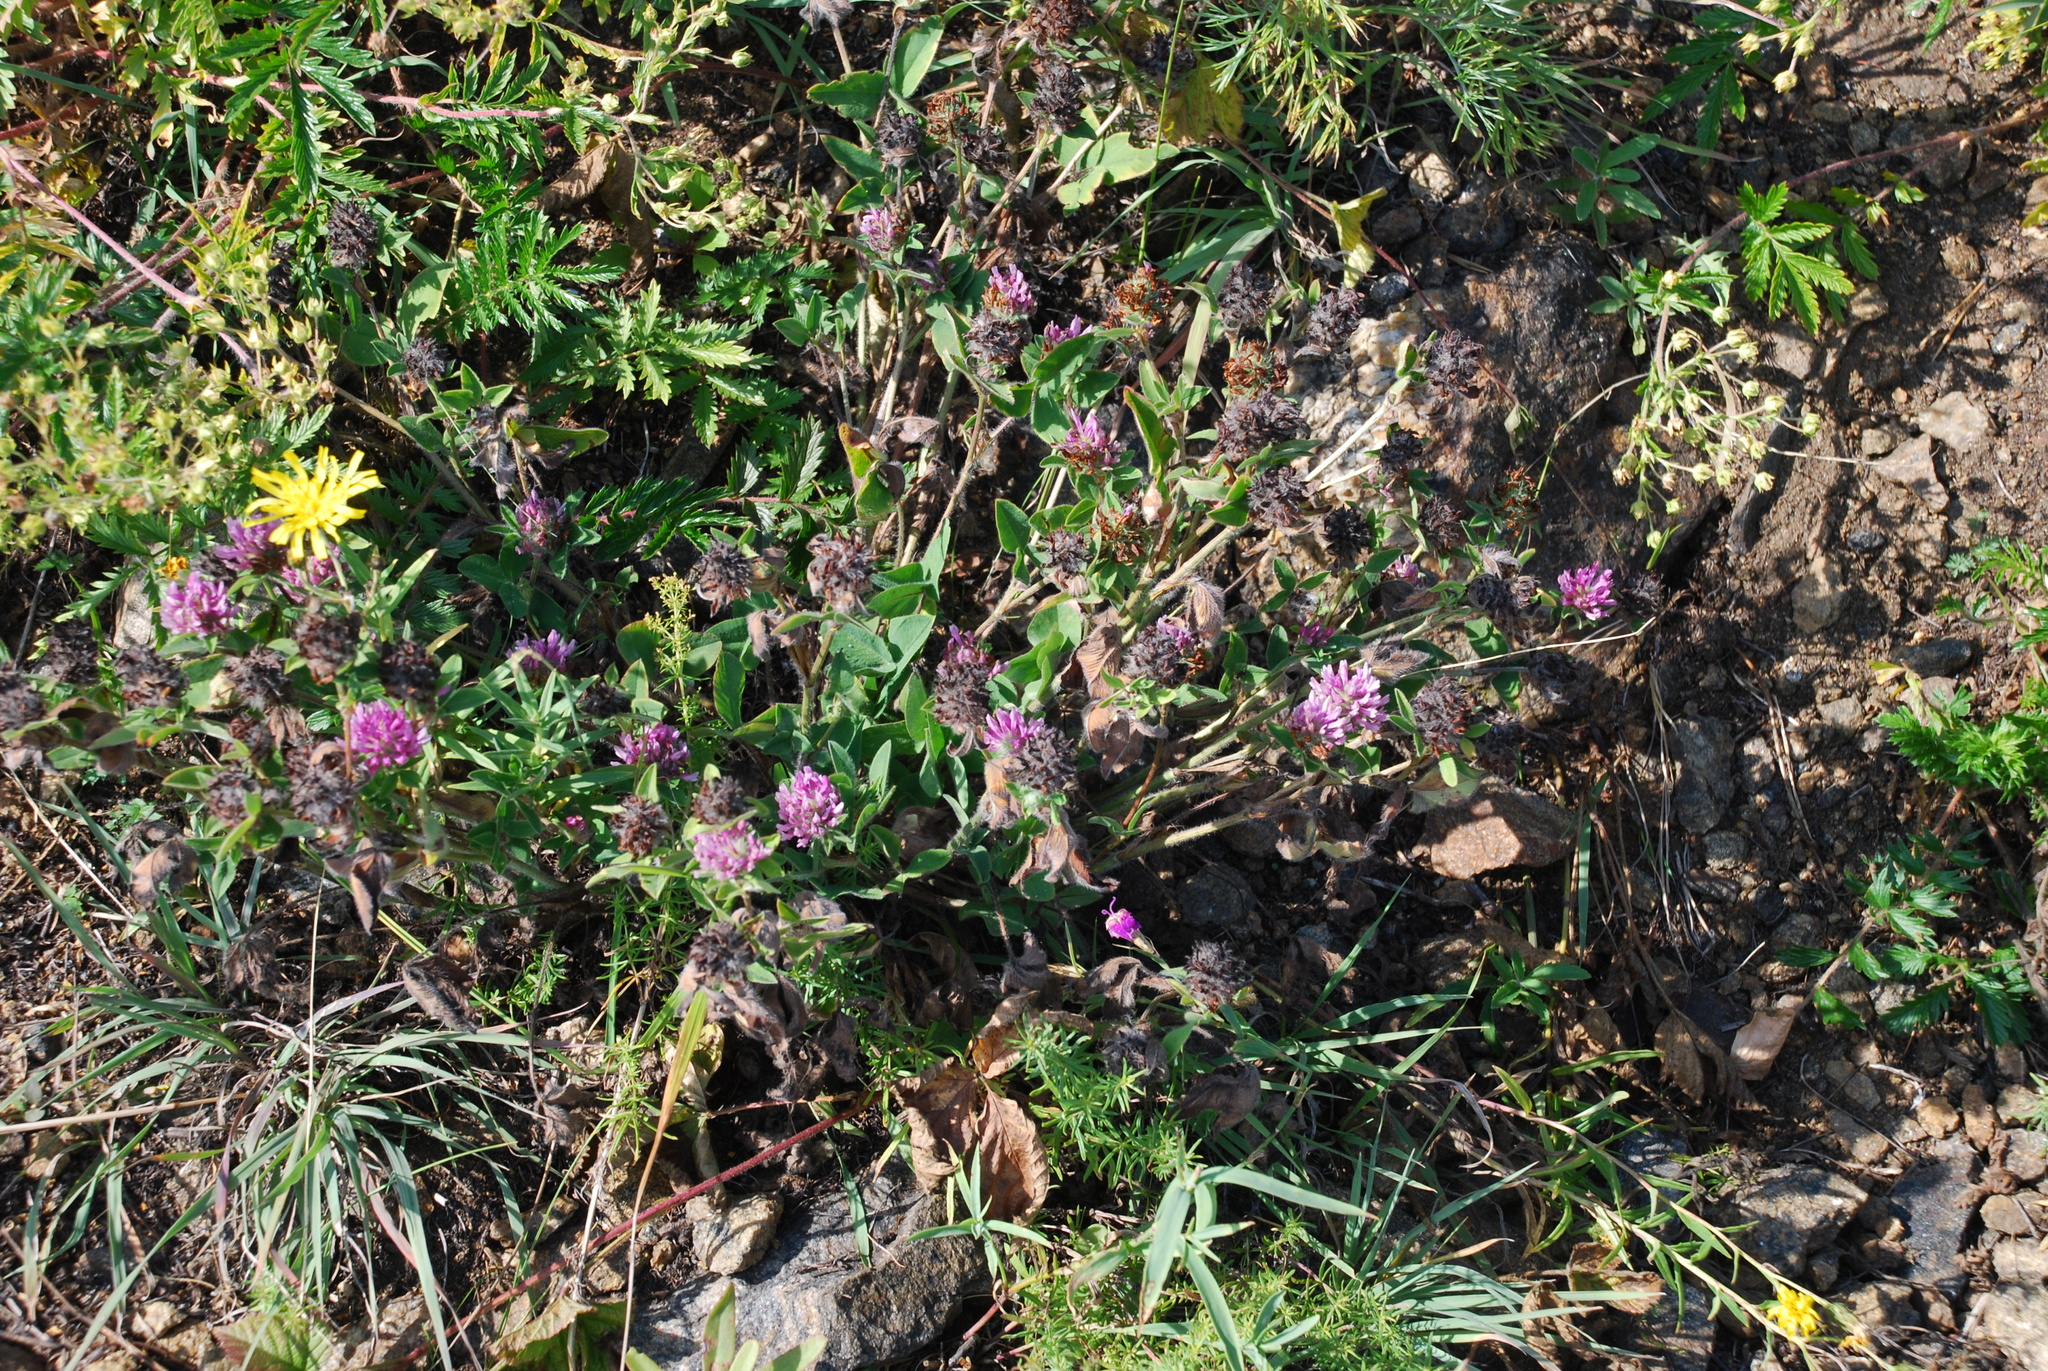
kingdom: Plantae
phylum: Tracheophyta
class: Magnoliopsida
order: Fabales
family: Fabaceae
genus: Trifolium
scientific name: Trifolium pratense
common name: Red clover
